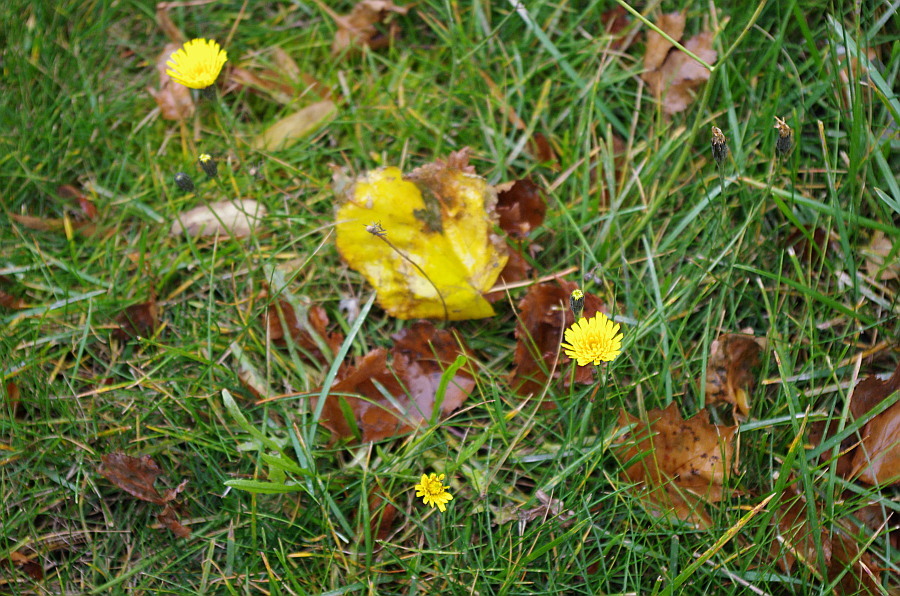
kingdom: Plantae
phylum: Tracheophyta
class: Magnoliopsida
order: Asterales
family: Asteraceae
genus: Scorzoneroides
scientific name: Scorzoneroides autumnalis
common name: Autumn hawkbit
